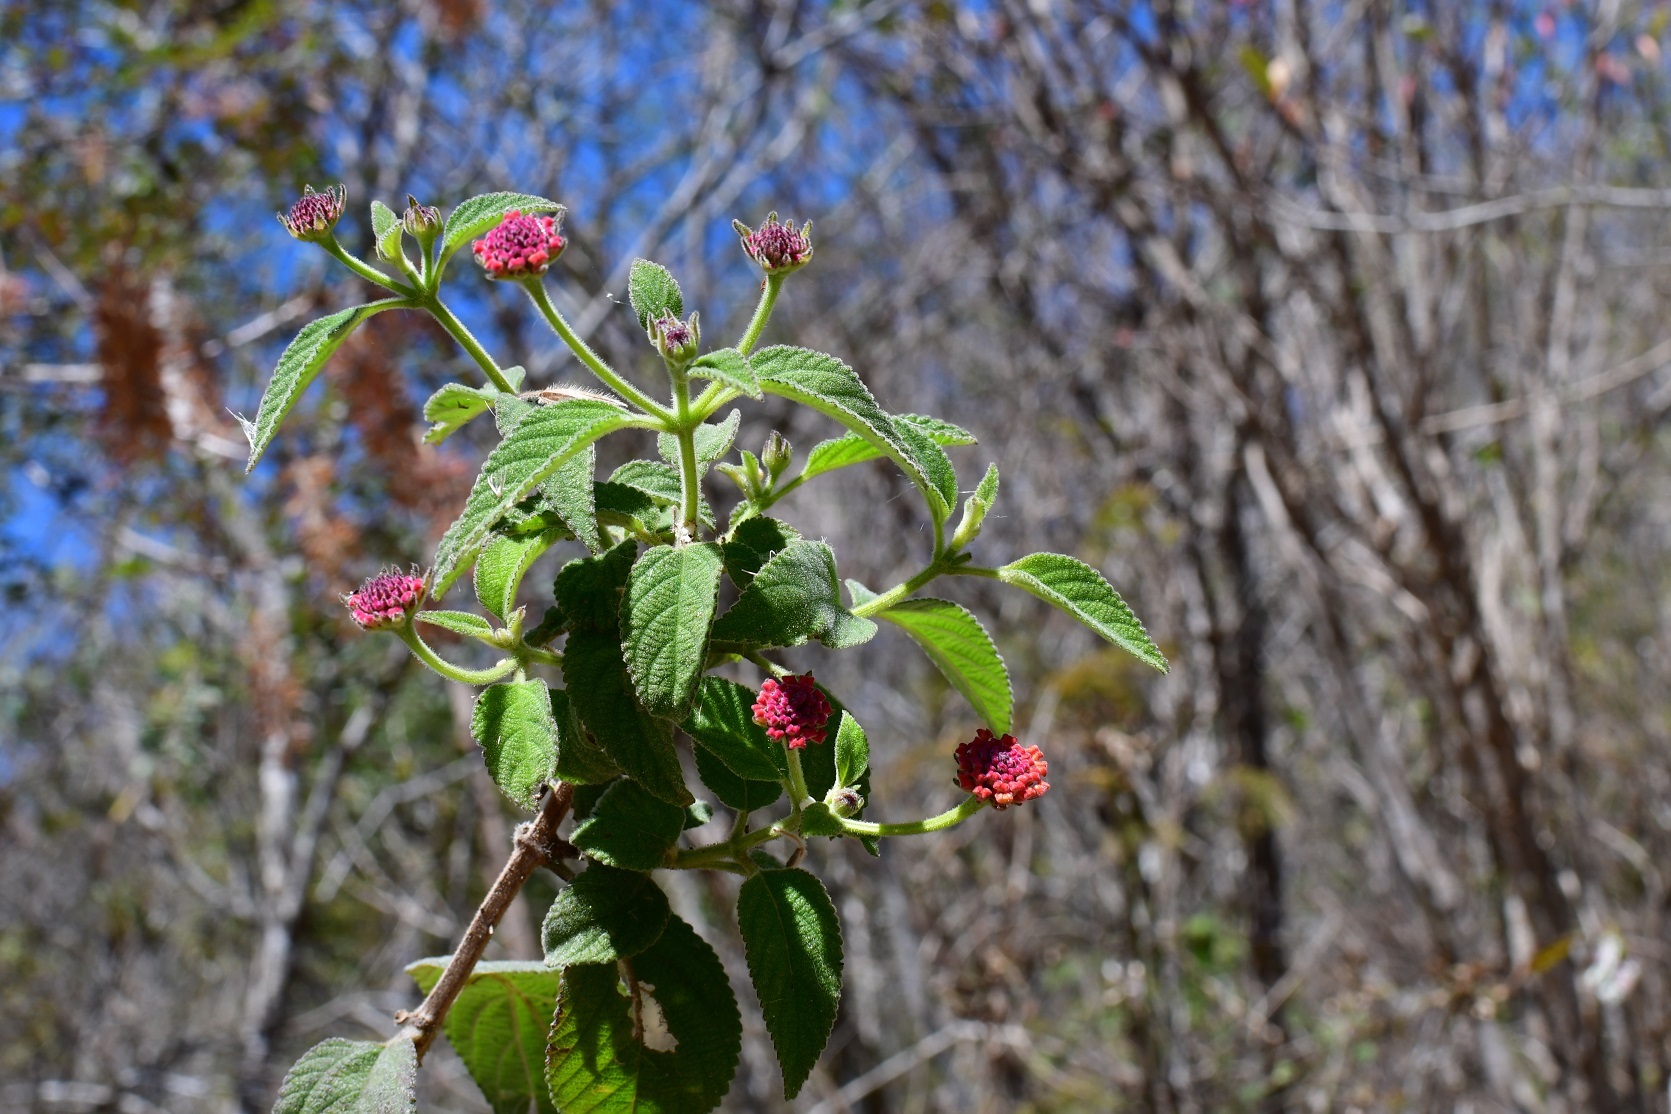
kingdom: Plantae
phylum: Tracheophyta
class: Magnoliopsida
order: Lamiales
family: Verbenaceae
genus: Lantana
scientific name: Lantana horrida
